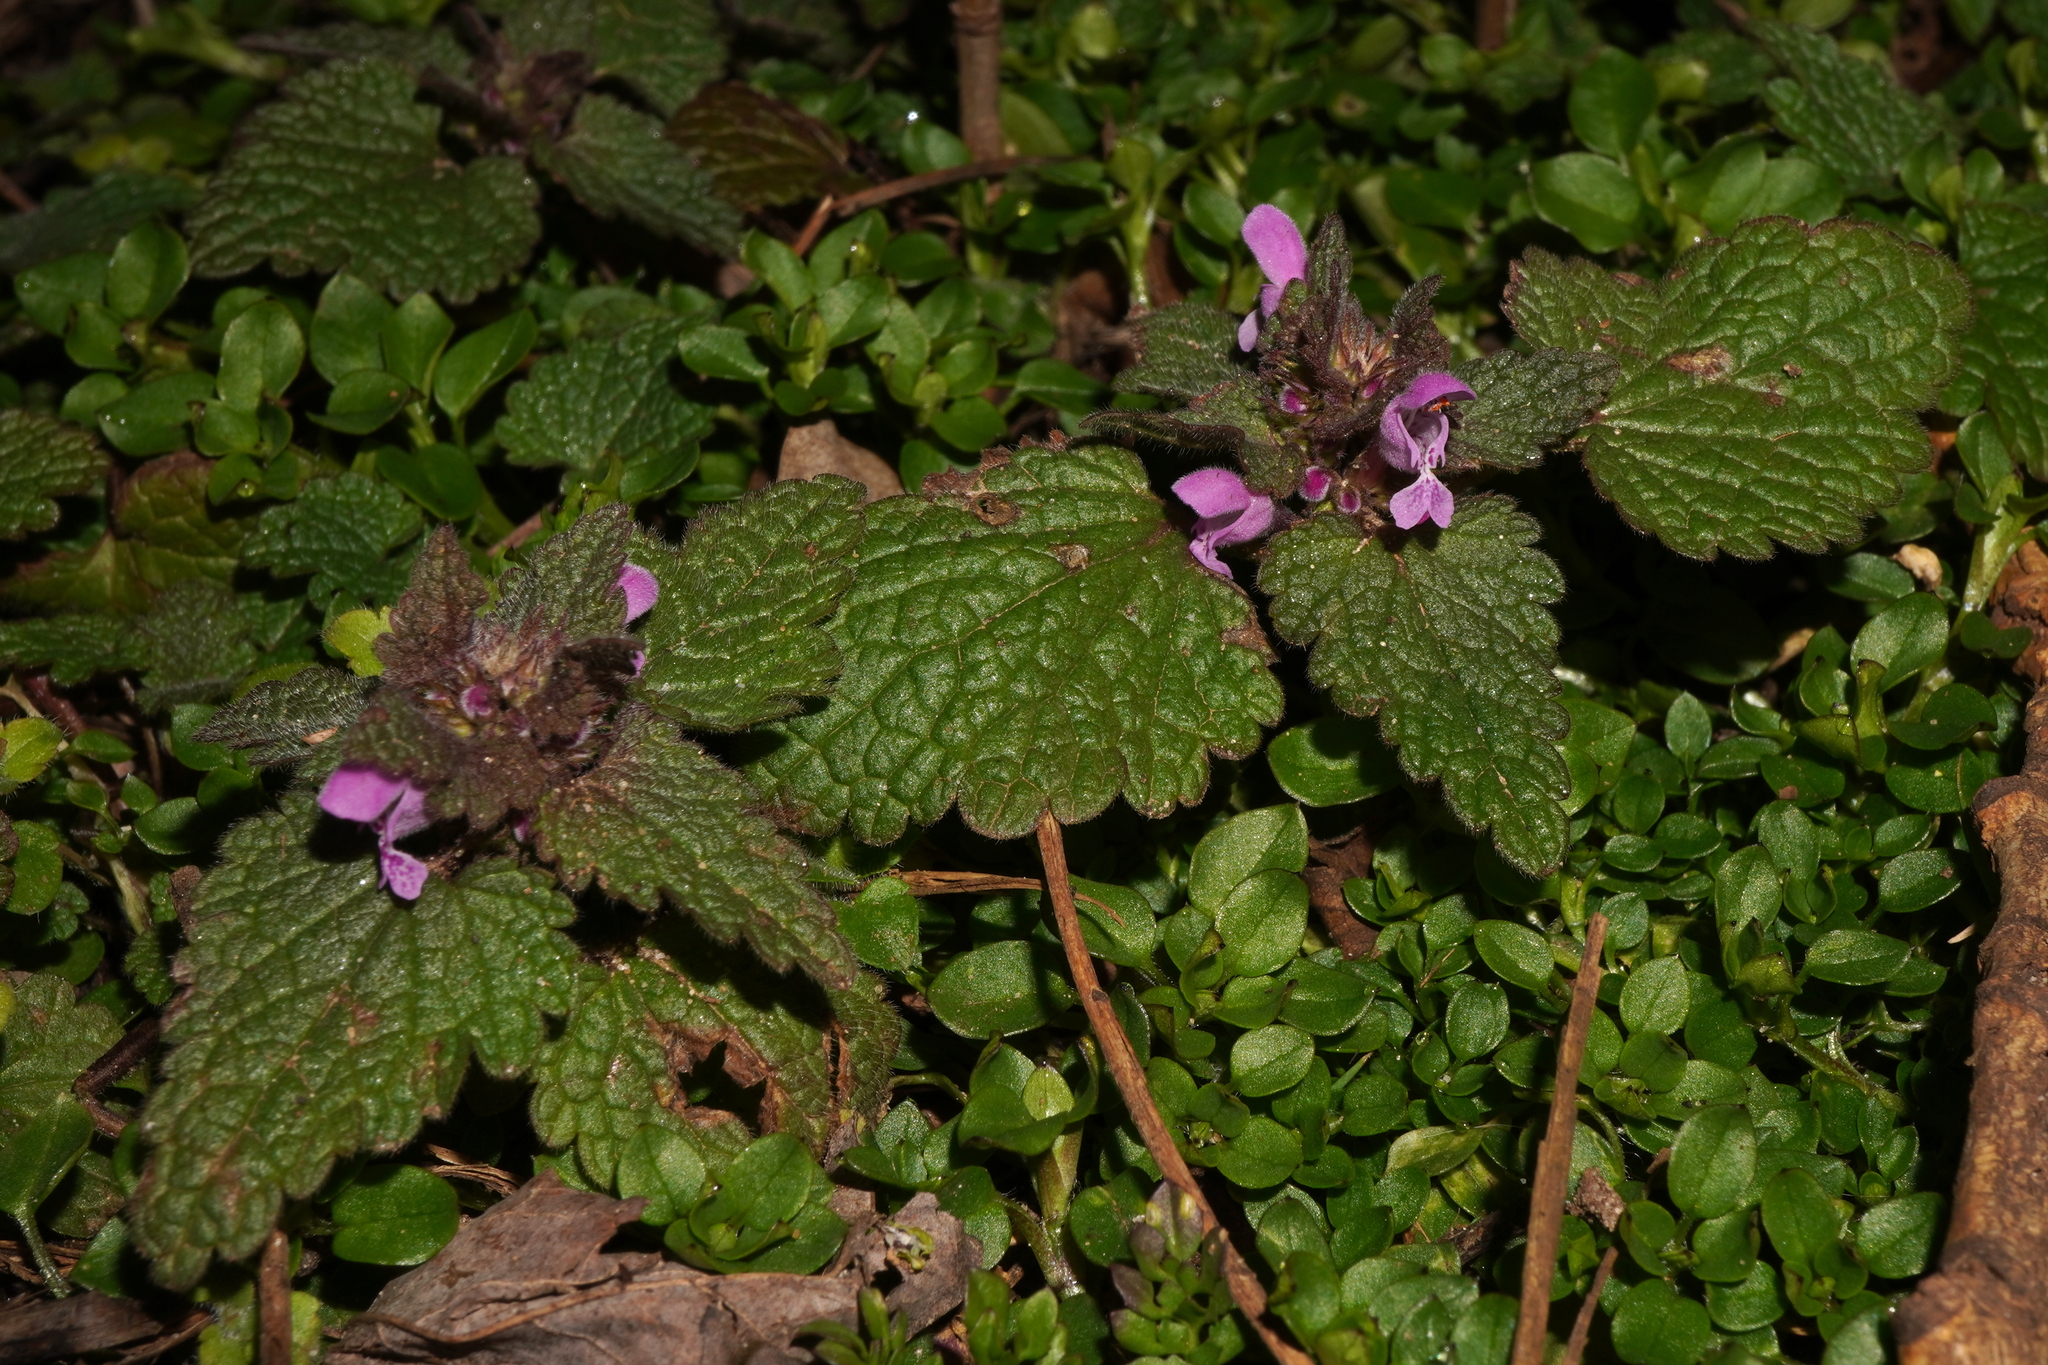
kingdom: Plantae
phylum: Tracheophyta
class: Magnoliopsida
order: Lamiales
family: Lamiaceae
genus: Lamium
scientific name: Lamium purpureum
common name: Red dead-nettle
